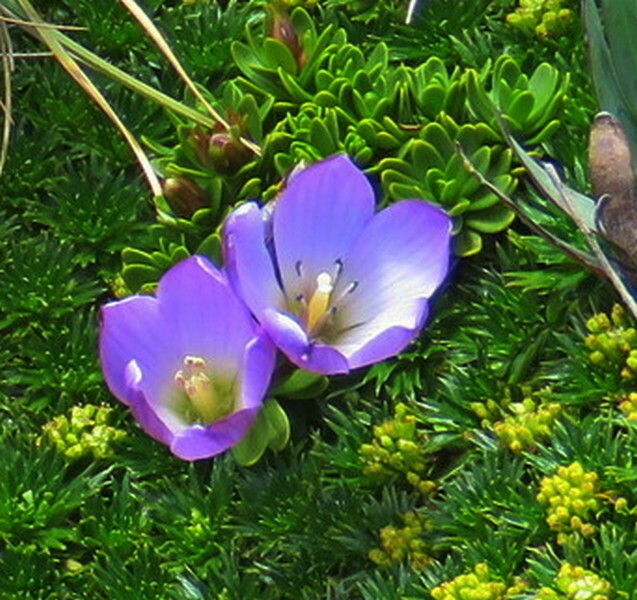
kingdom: Plantae
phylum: Tracheophyta
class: Magnoliopsida
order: Gentianales
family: Gentianaceae
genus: Gentianella
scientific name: Gentianella cerastioides
